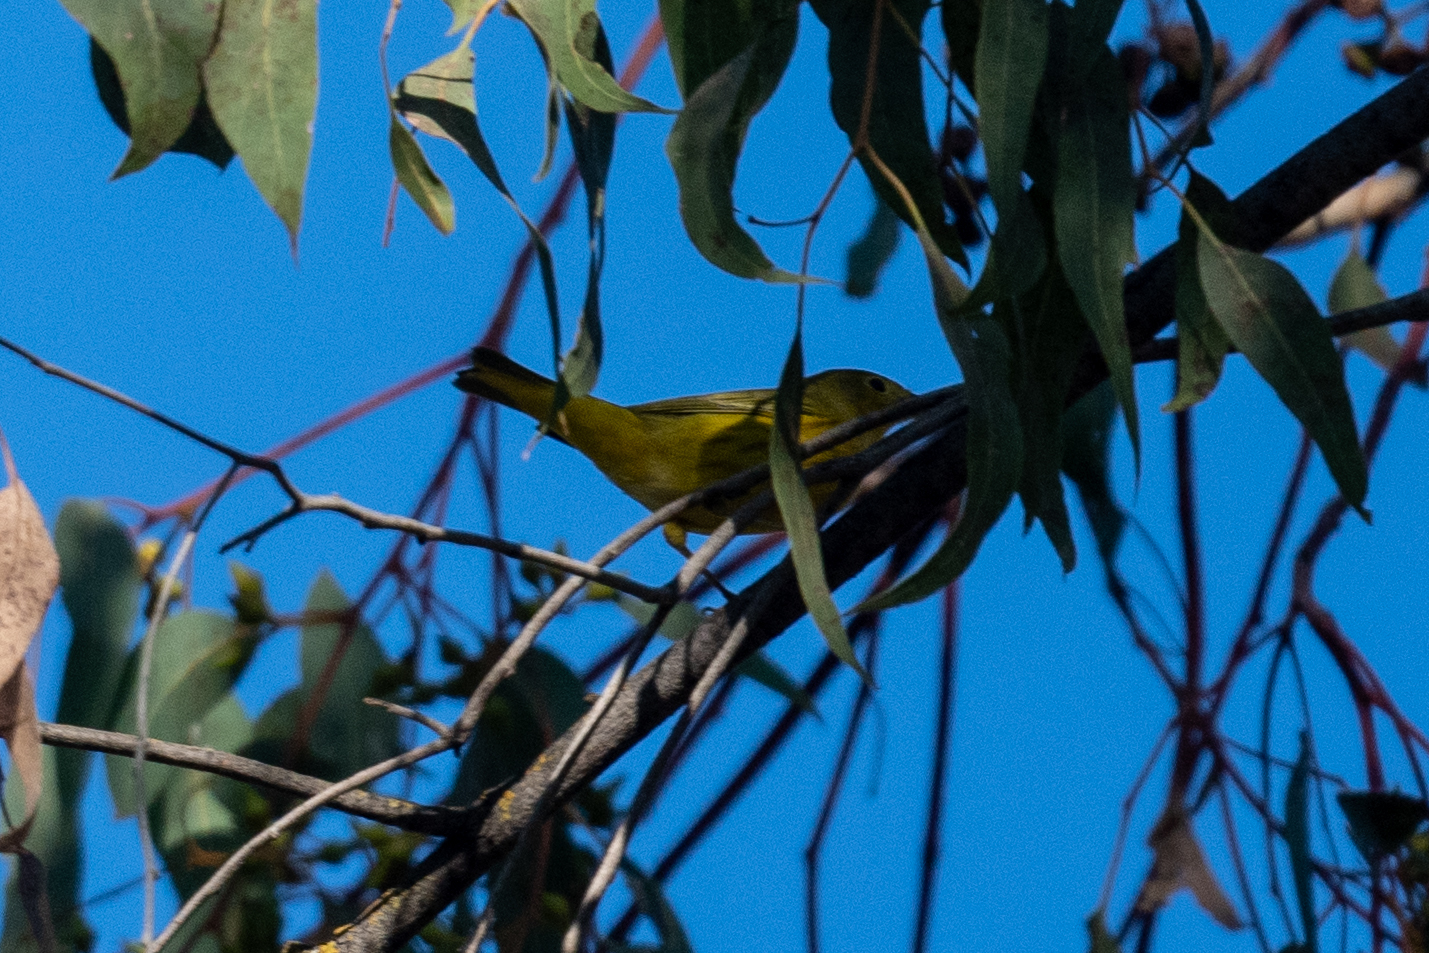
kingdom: Animalia
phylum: Chordata
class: Aves
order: Passeriformes
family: Parulidae
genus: Setophaga
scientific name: Setophaga petechia
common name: Yellow warbler
